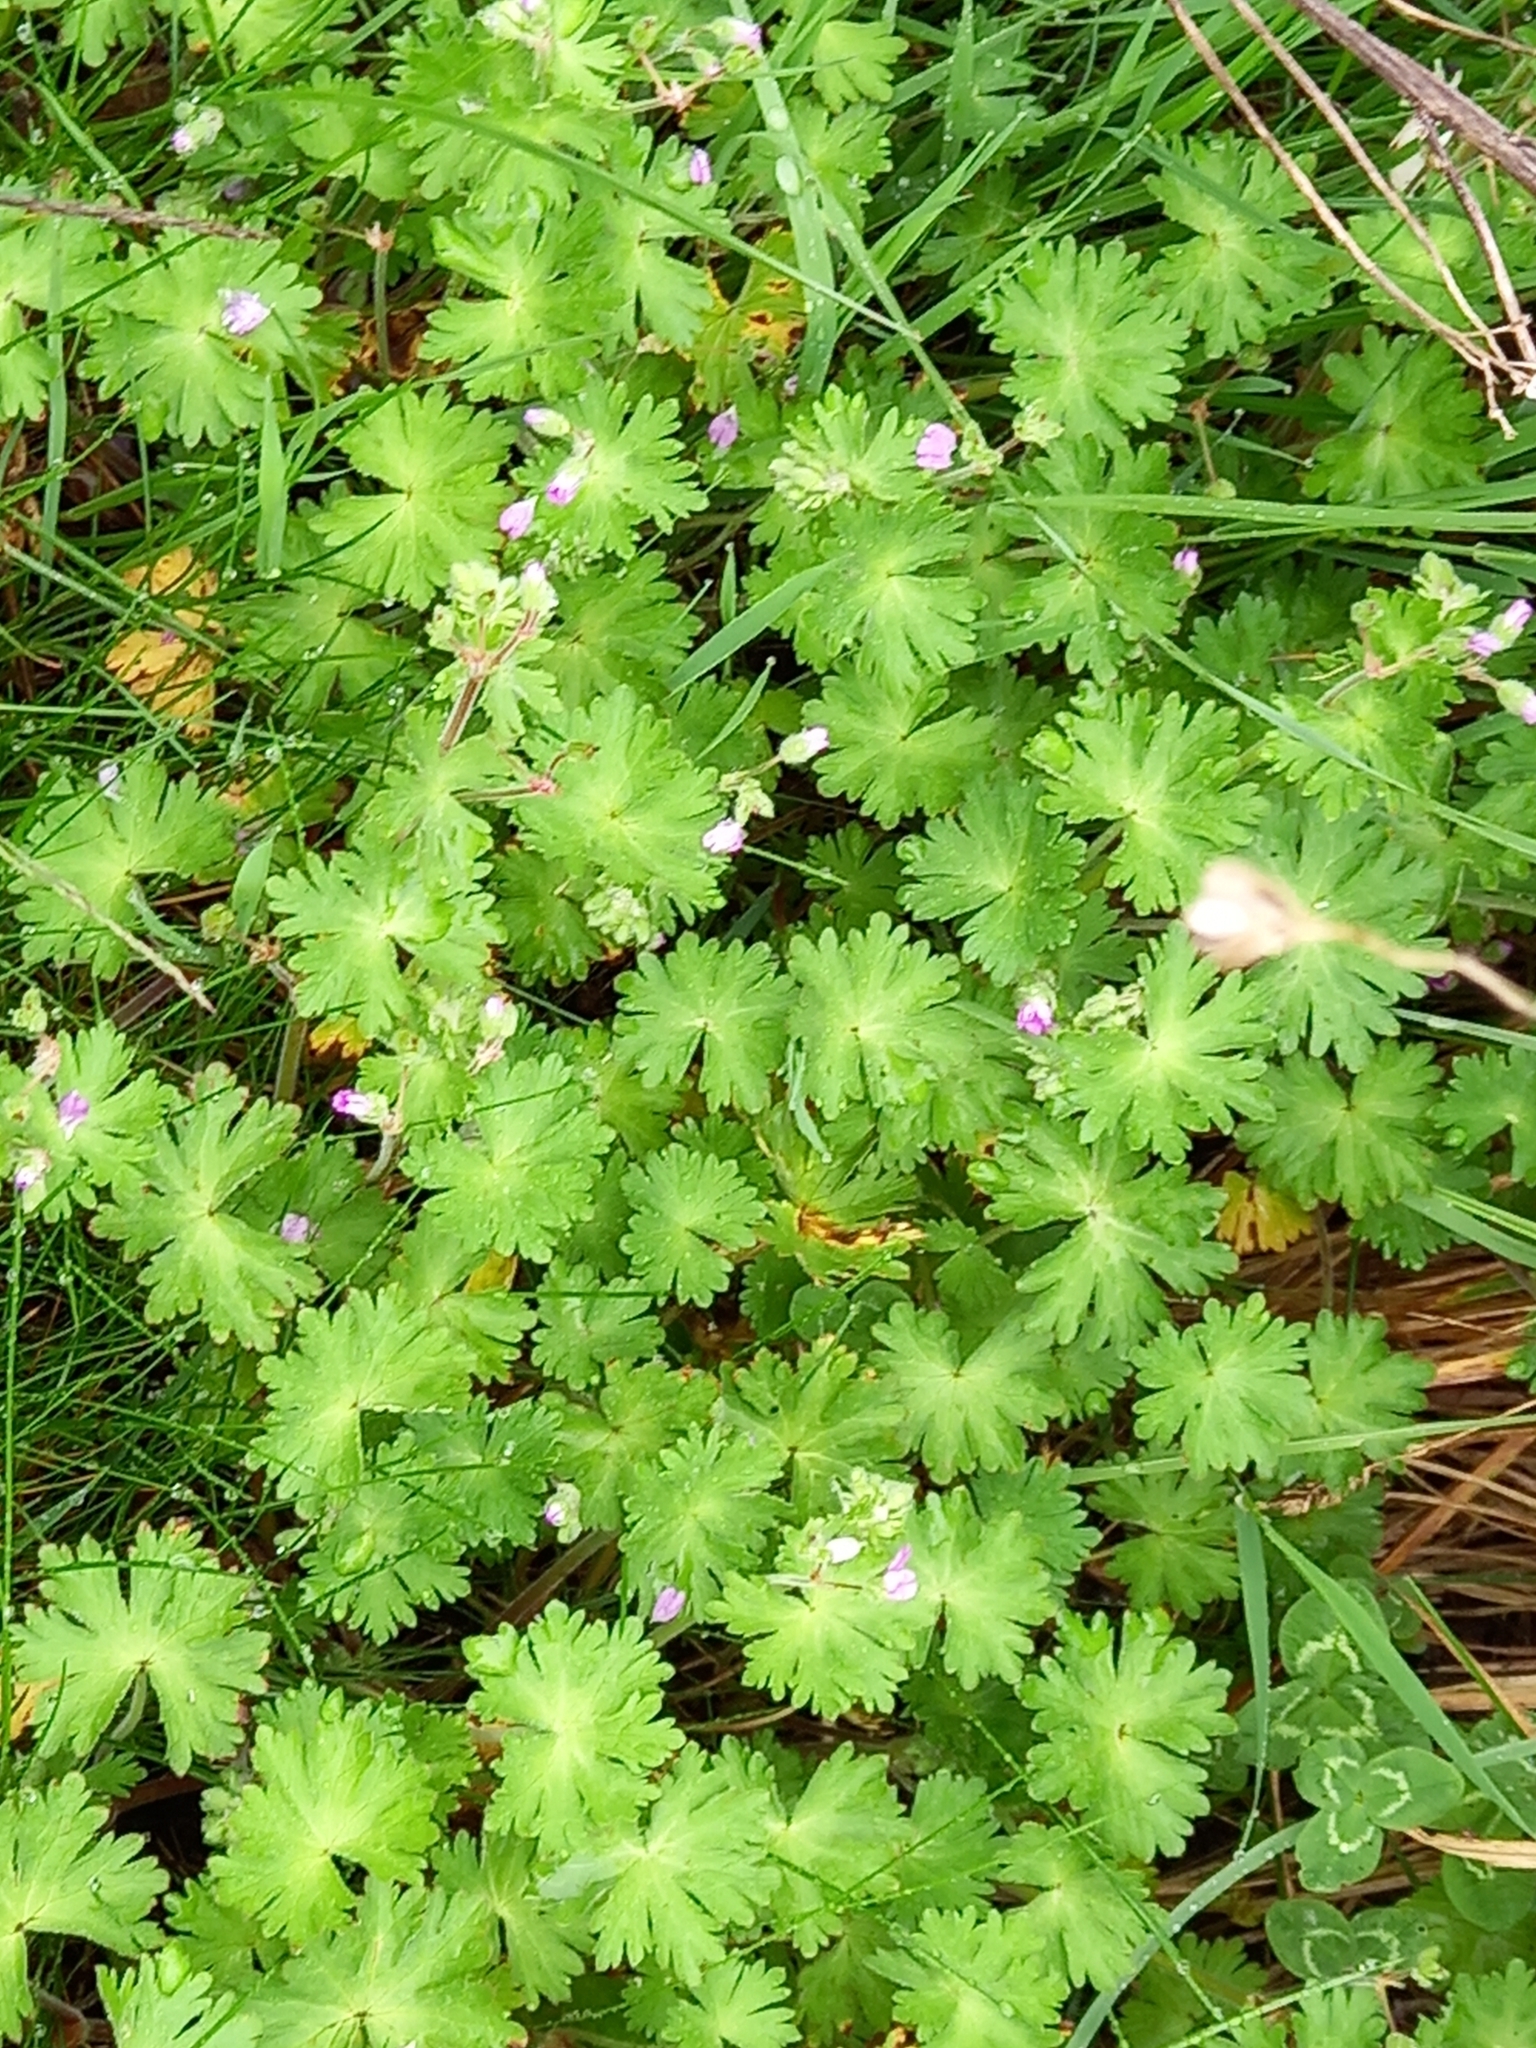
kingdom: Plantae
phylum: Tracheophyta
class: Magnoliopsida
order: Geraniales
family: Geraniaceae
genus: Geranium
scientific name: Geranium molle
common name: Dove's-foot crane's-bill
